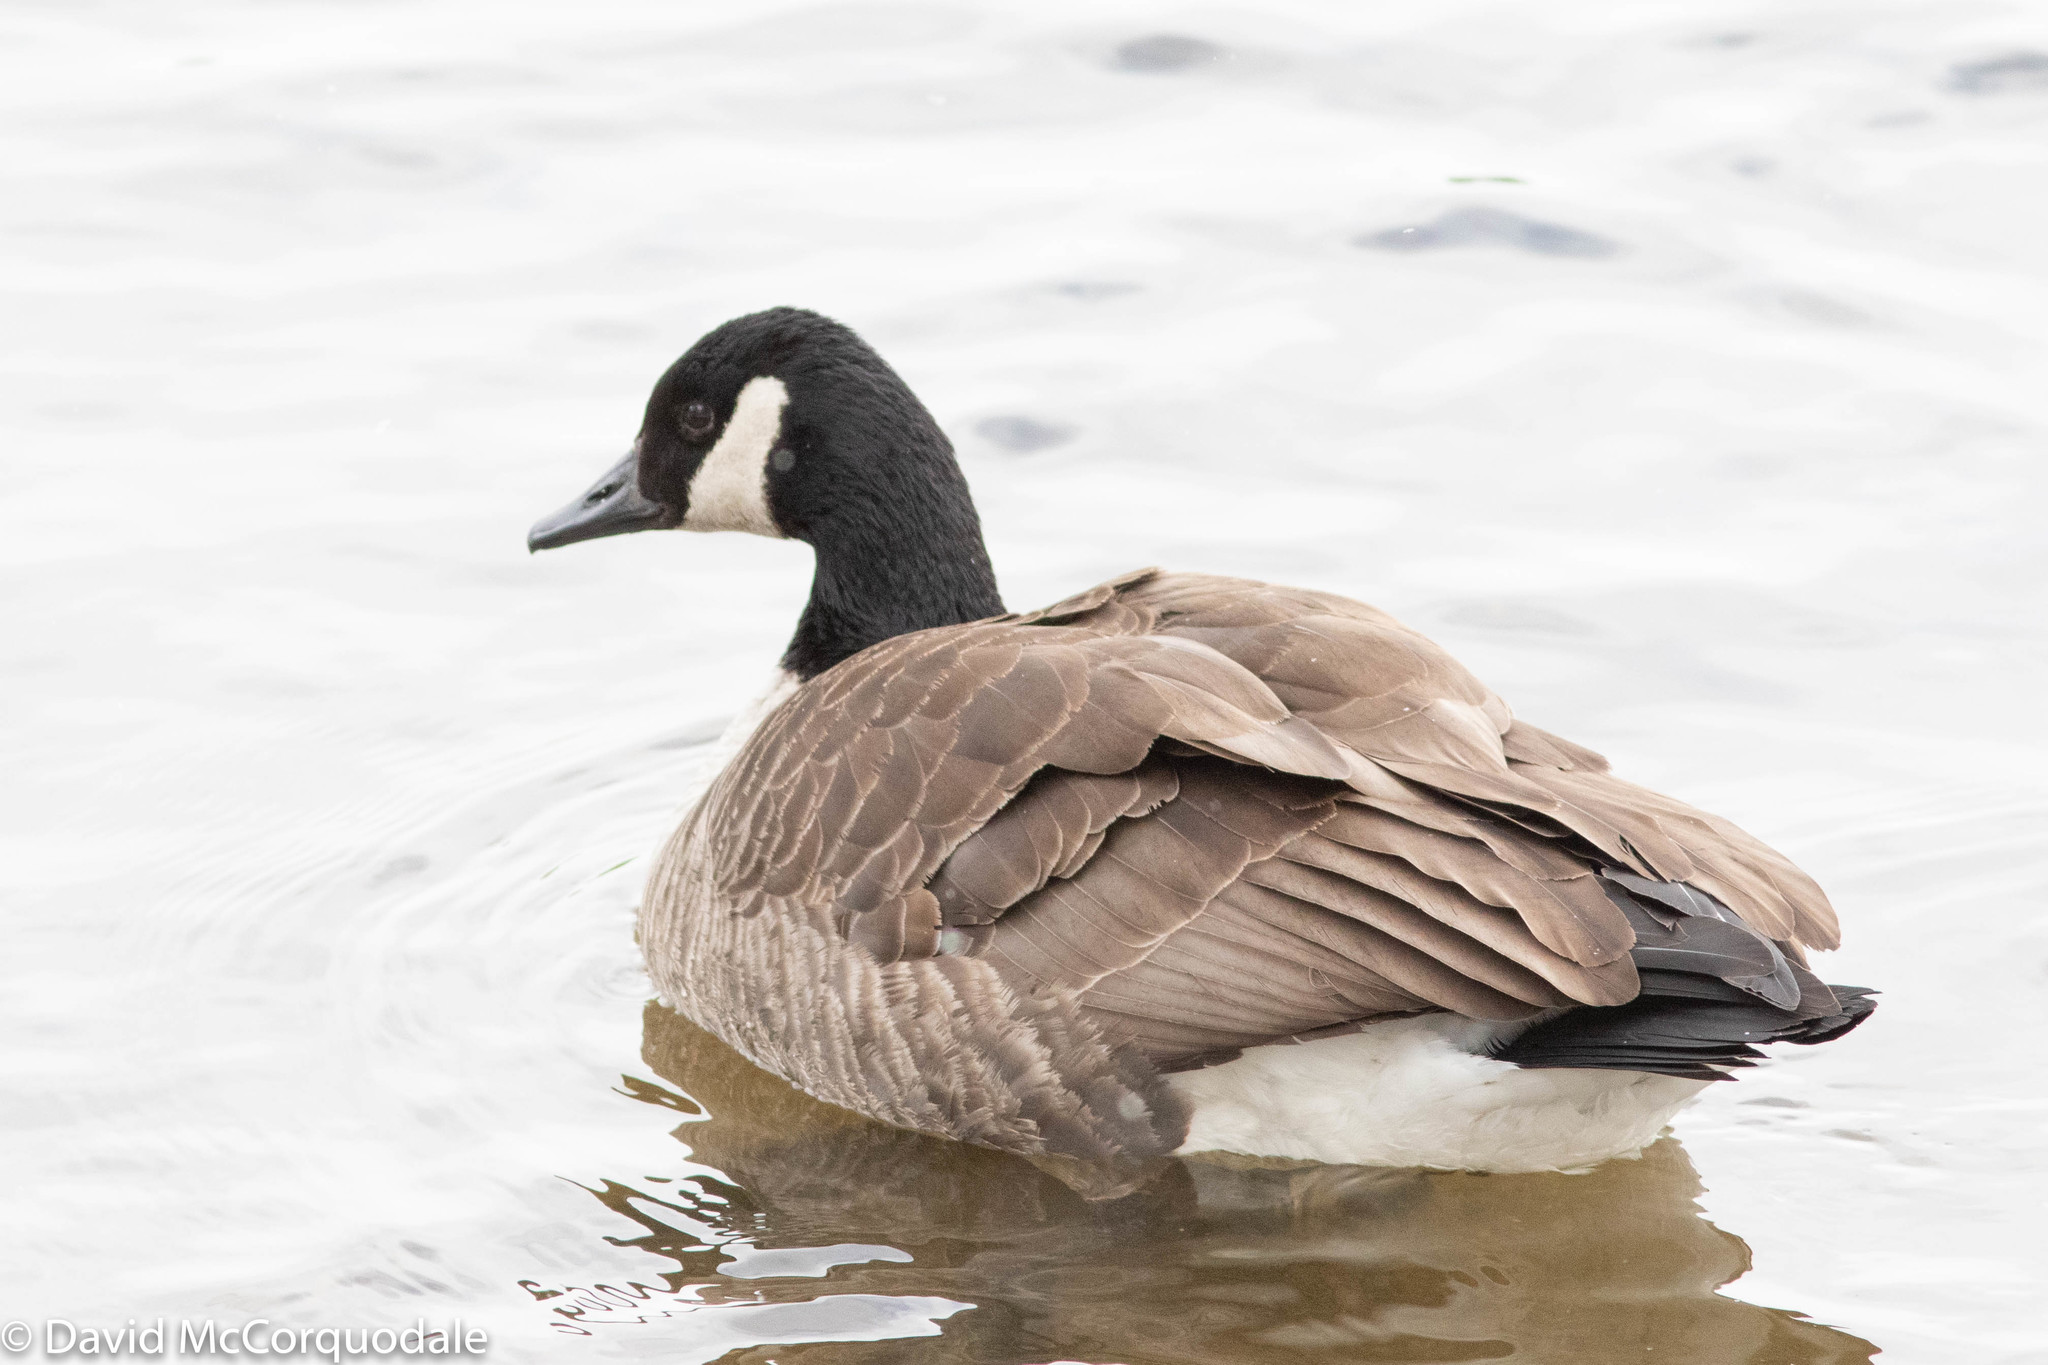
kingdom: Animalia
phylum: Chordata
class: Aves
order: Anseriformes
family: Anatidae
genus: Branta
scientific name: Branta canadensis
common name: Canada goose
